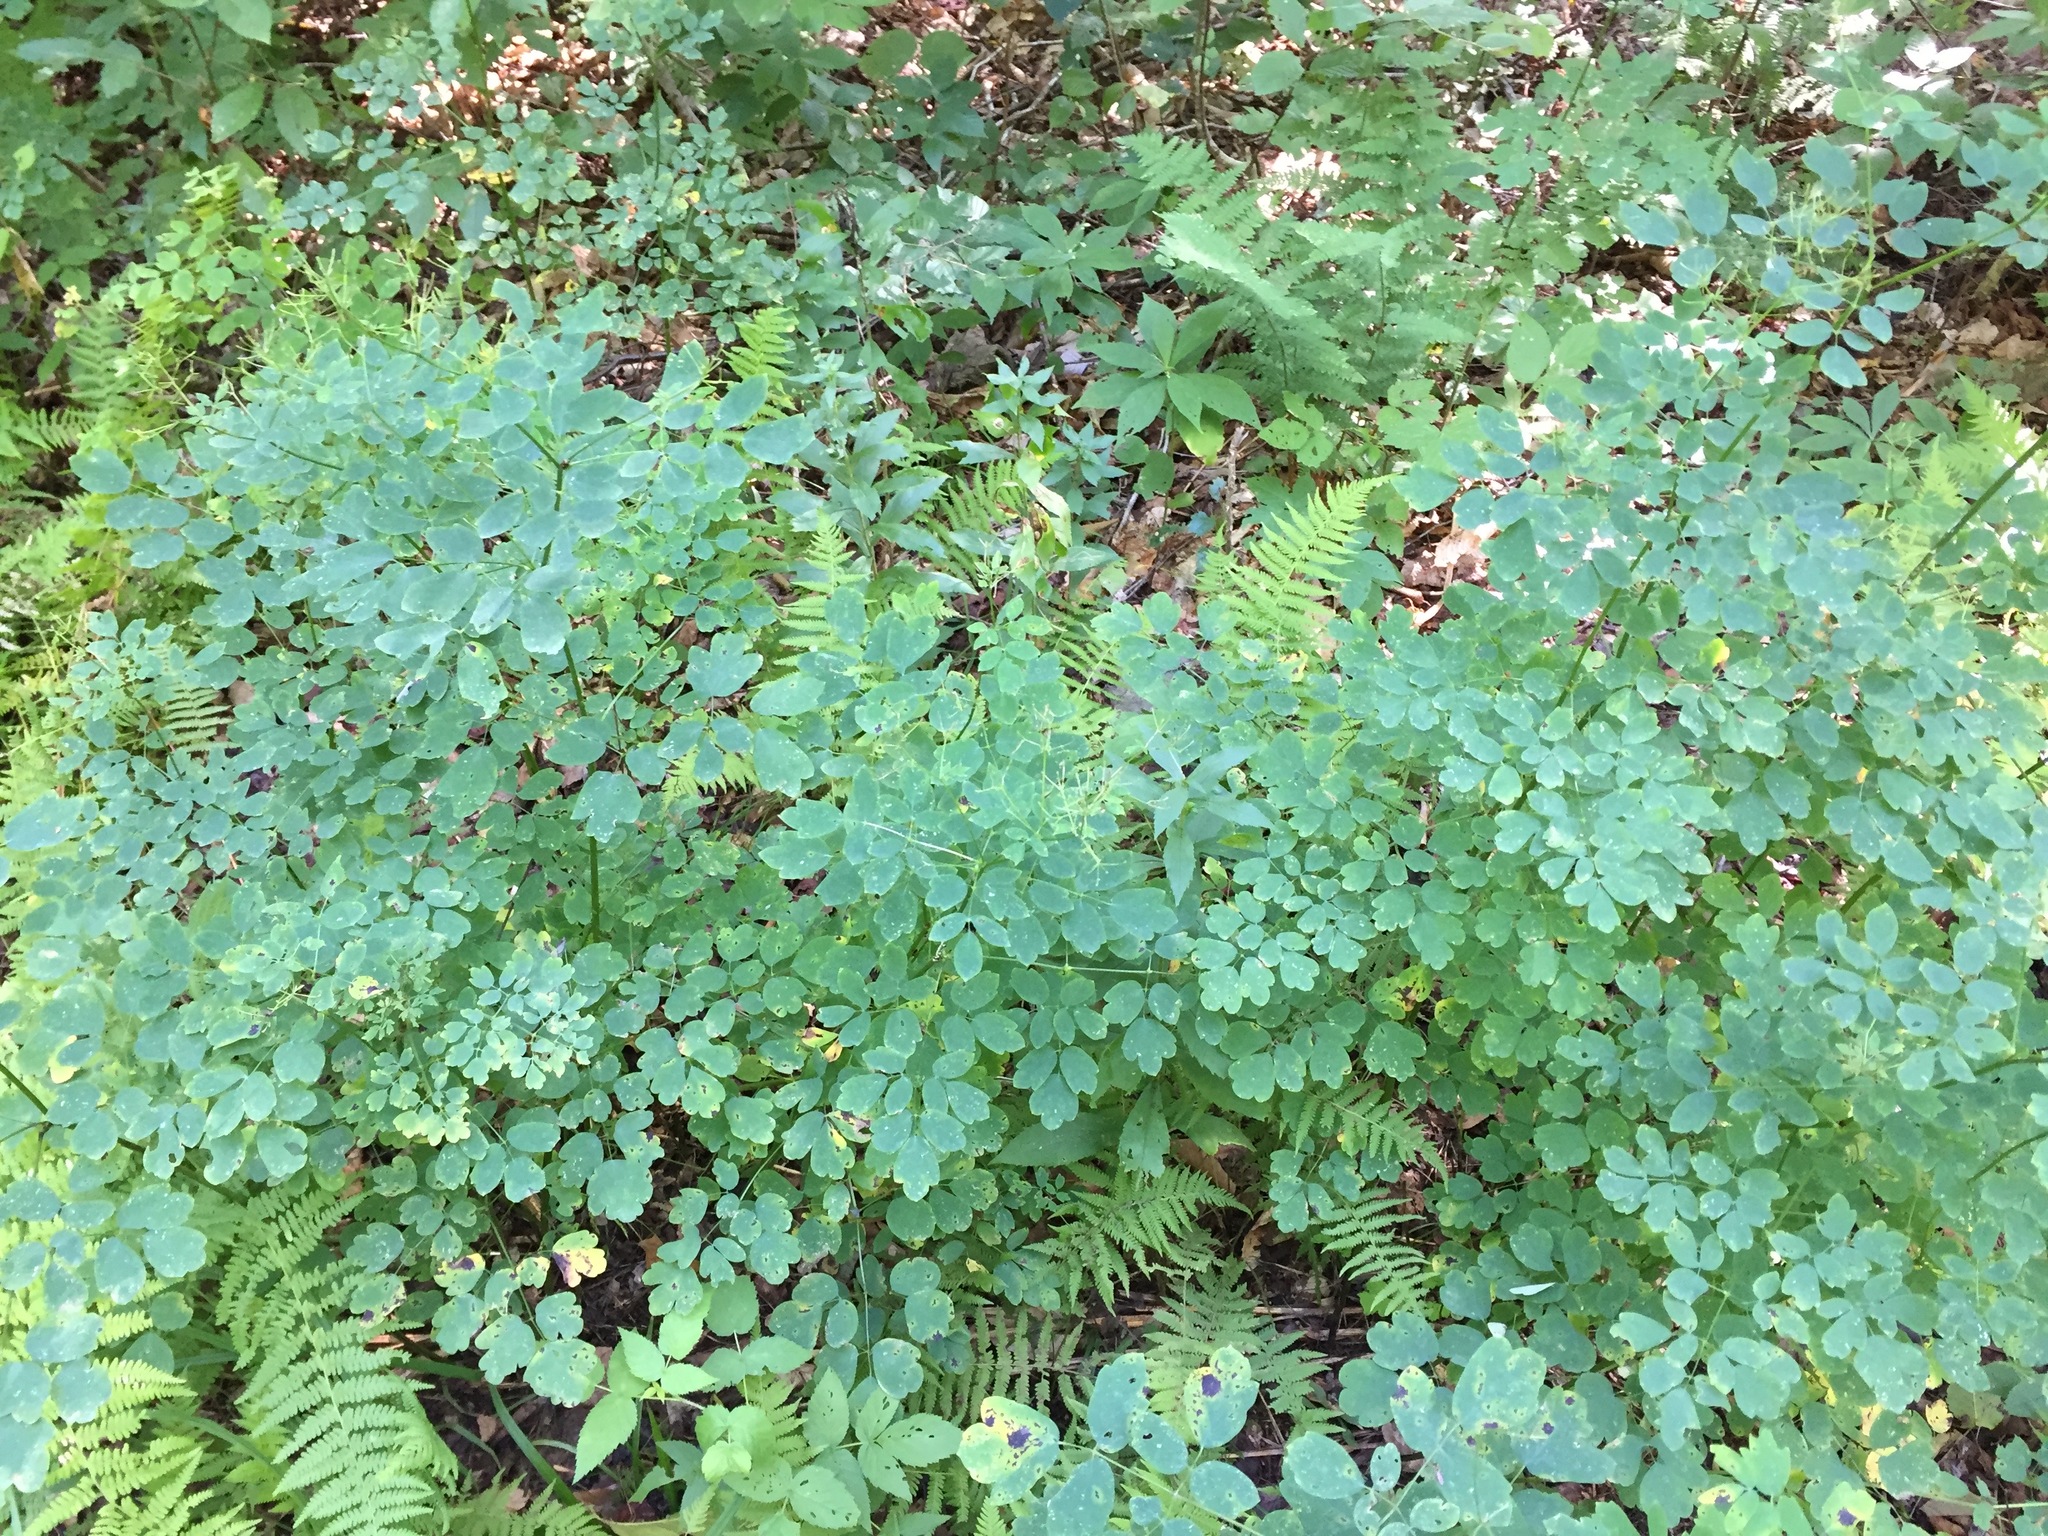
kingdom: Plantae
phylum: Tracheophyta
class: Magnoliopsida
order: Ranunculales
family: Ranunculaceae
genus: Thalictrum
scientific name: Thalictrum pubescens
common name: King-of-the-meadow
